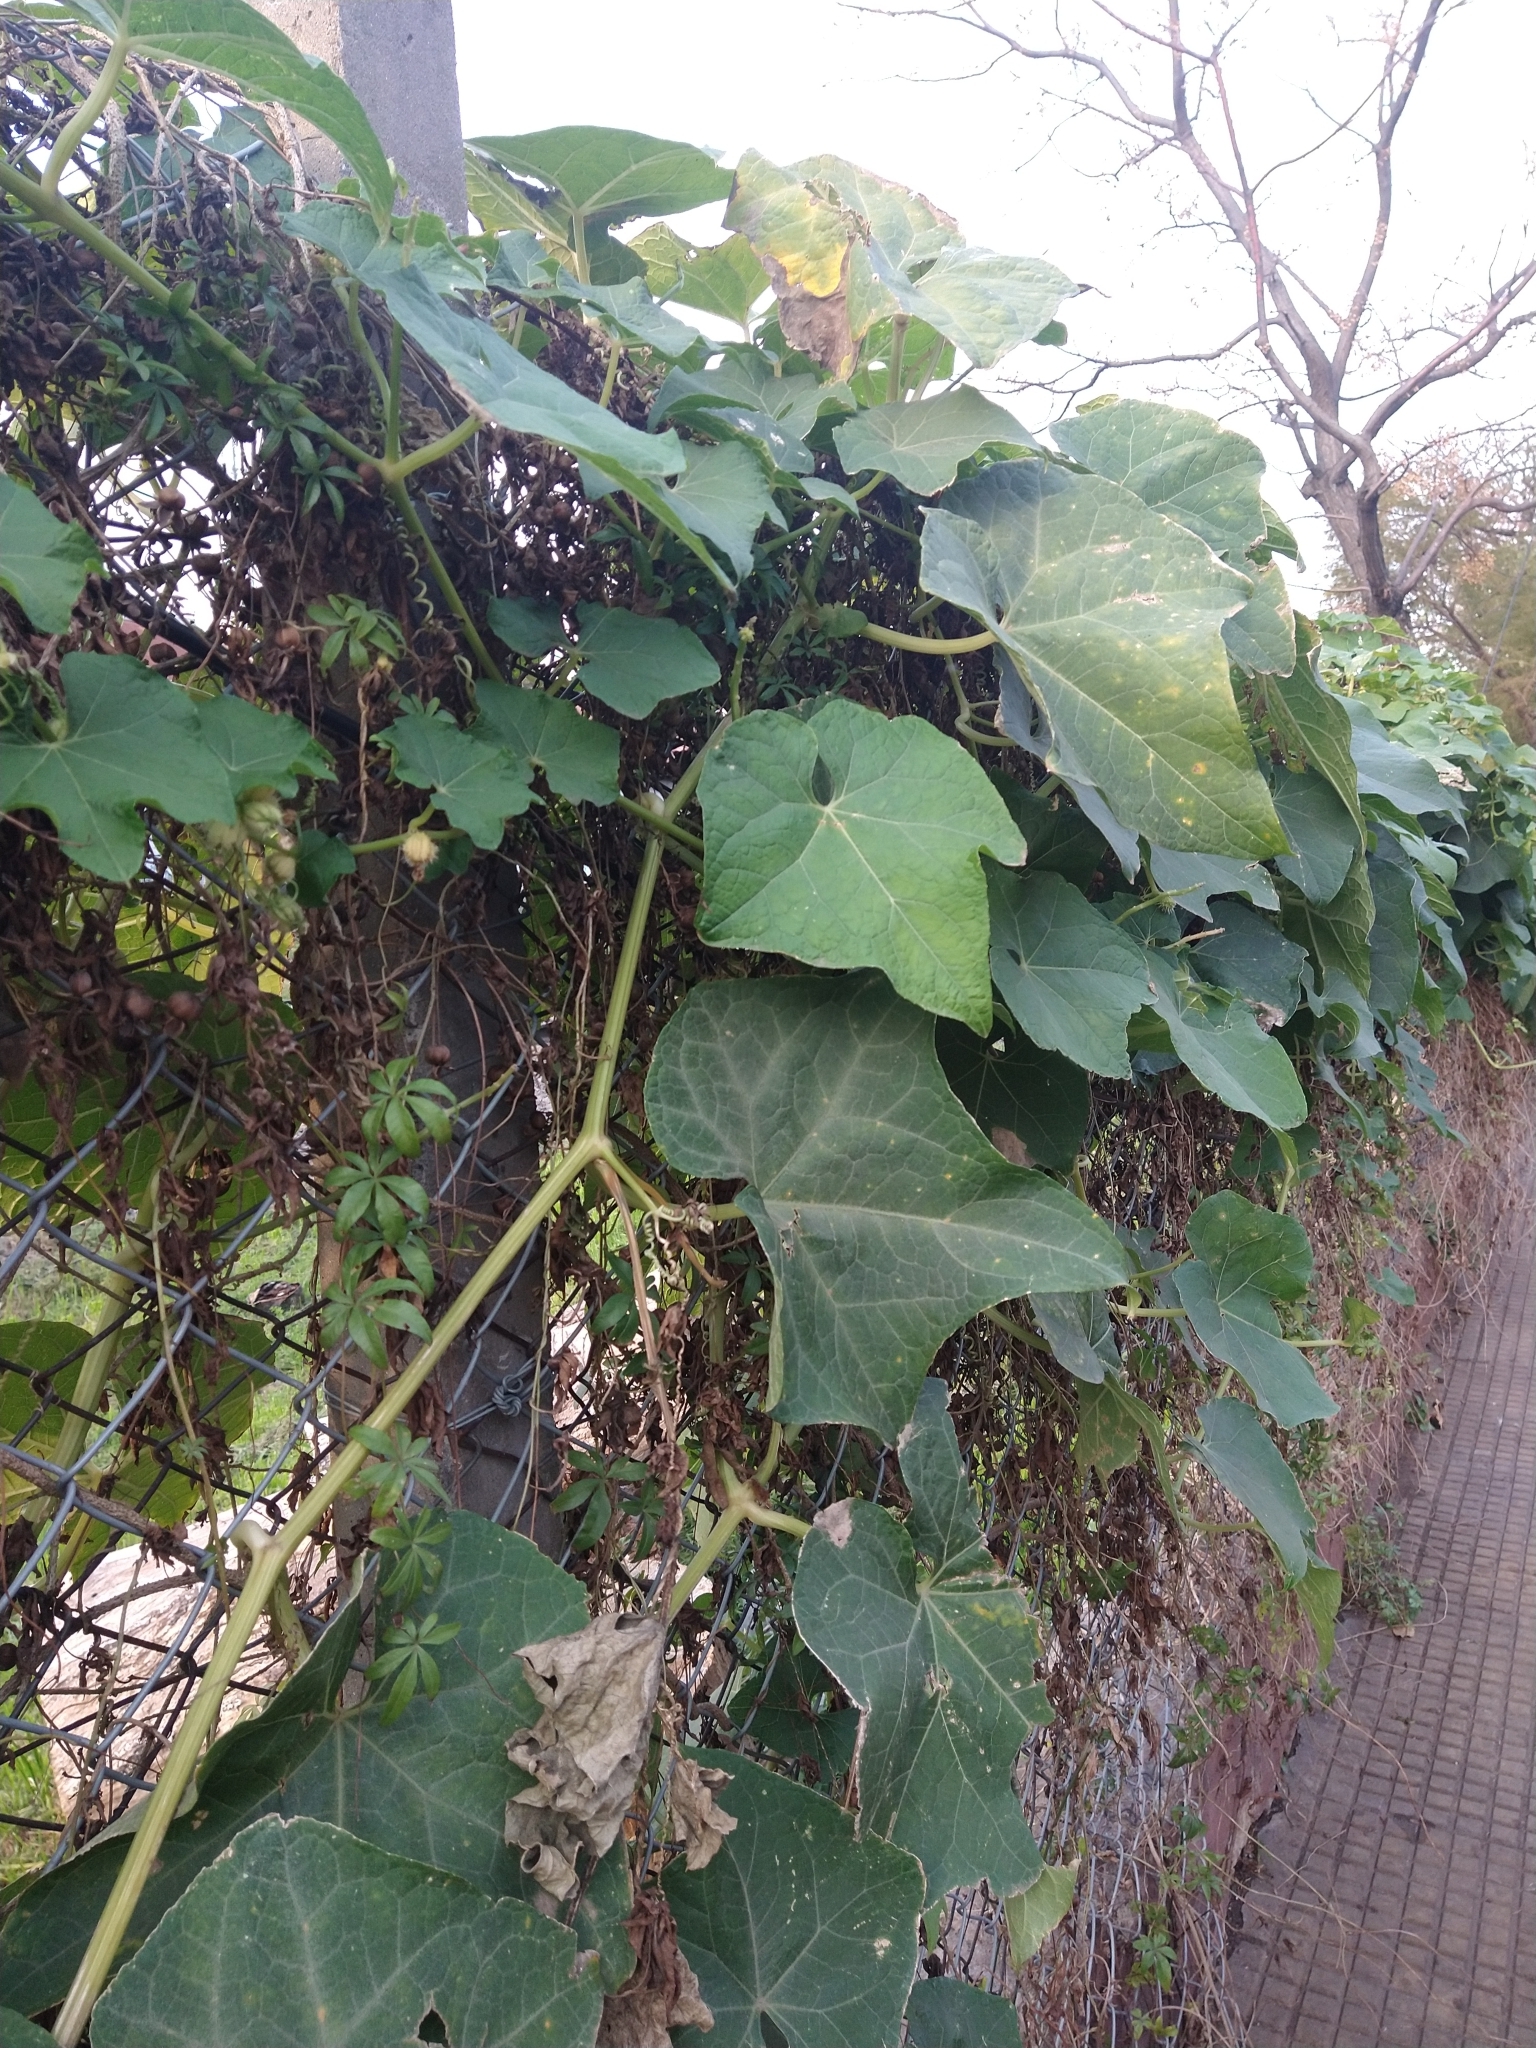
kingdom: Plantae
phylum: Tracheophyta
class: Magnoliopsida
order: Apiales
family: Araliaceae
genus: Hedera
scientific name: Hedera helix
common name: Ivy
